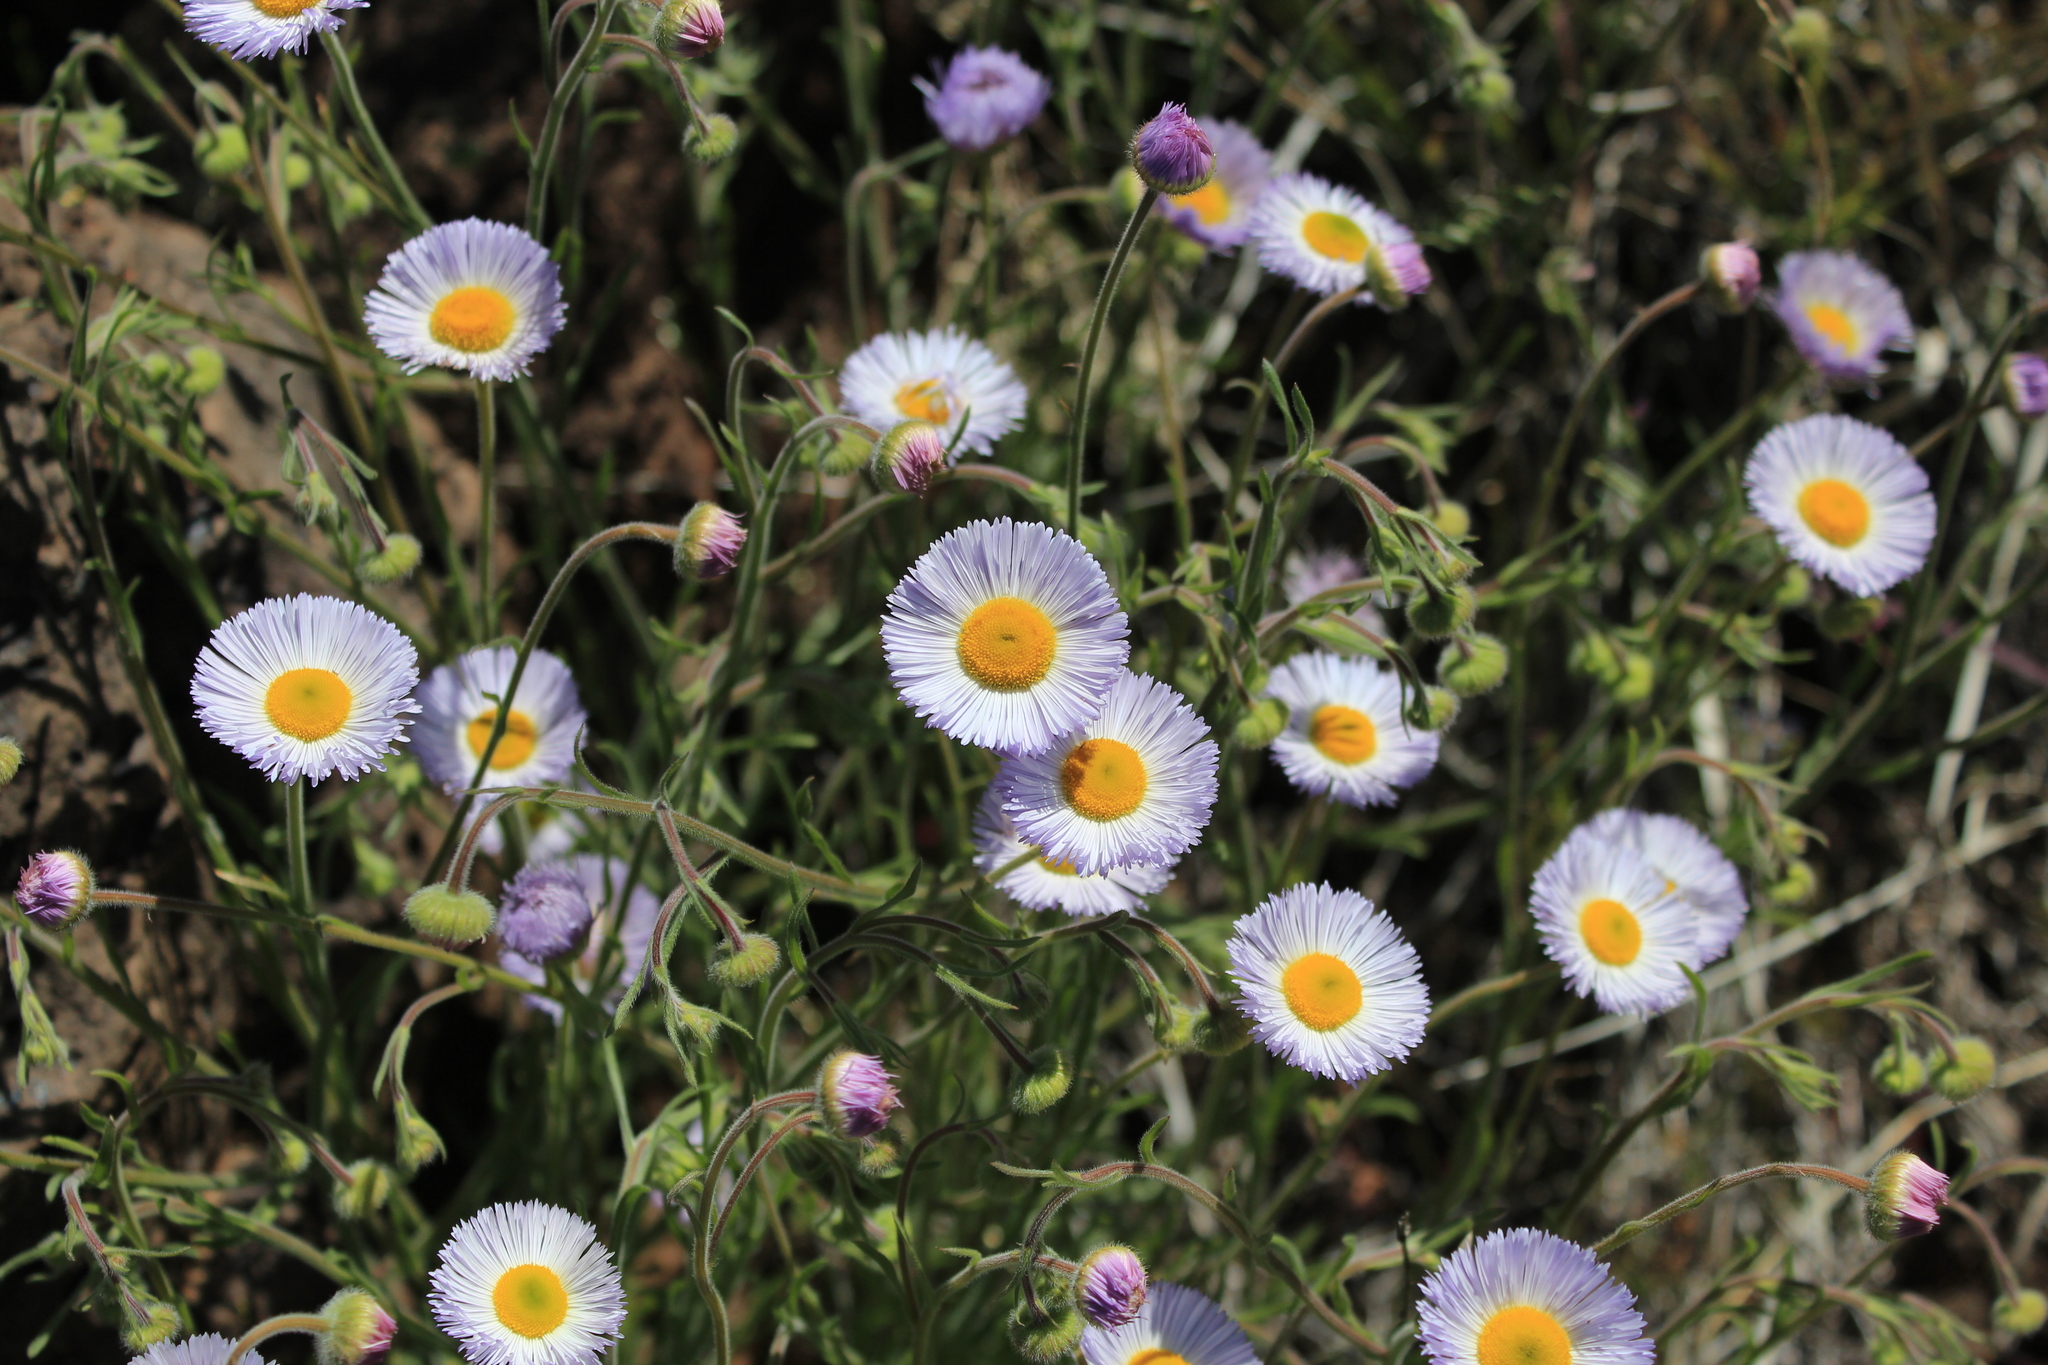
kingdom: Plantae
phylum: Tracheophyta
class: Magnoliopsida
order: Asterales
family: Asteraceae
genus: Erigeron
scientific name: Erigeron divergens
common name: Diffuse fleabane
